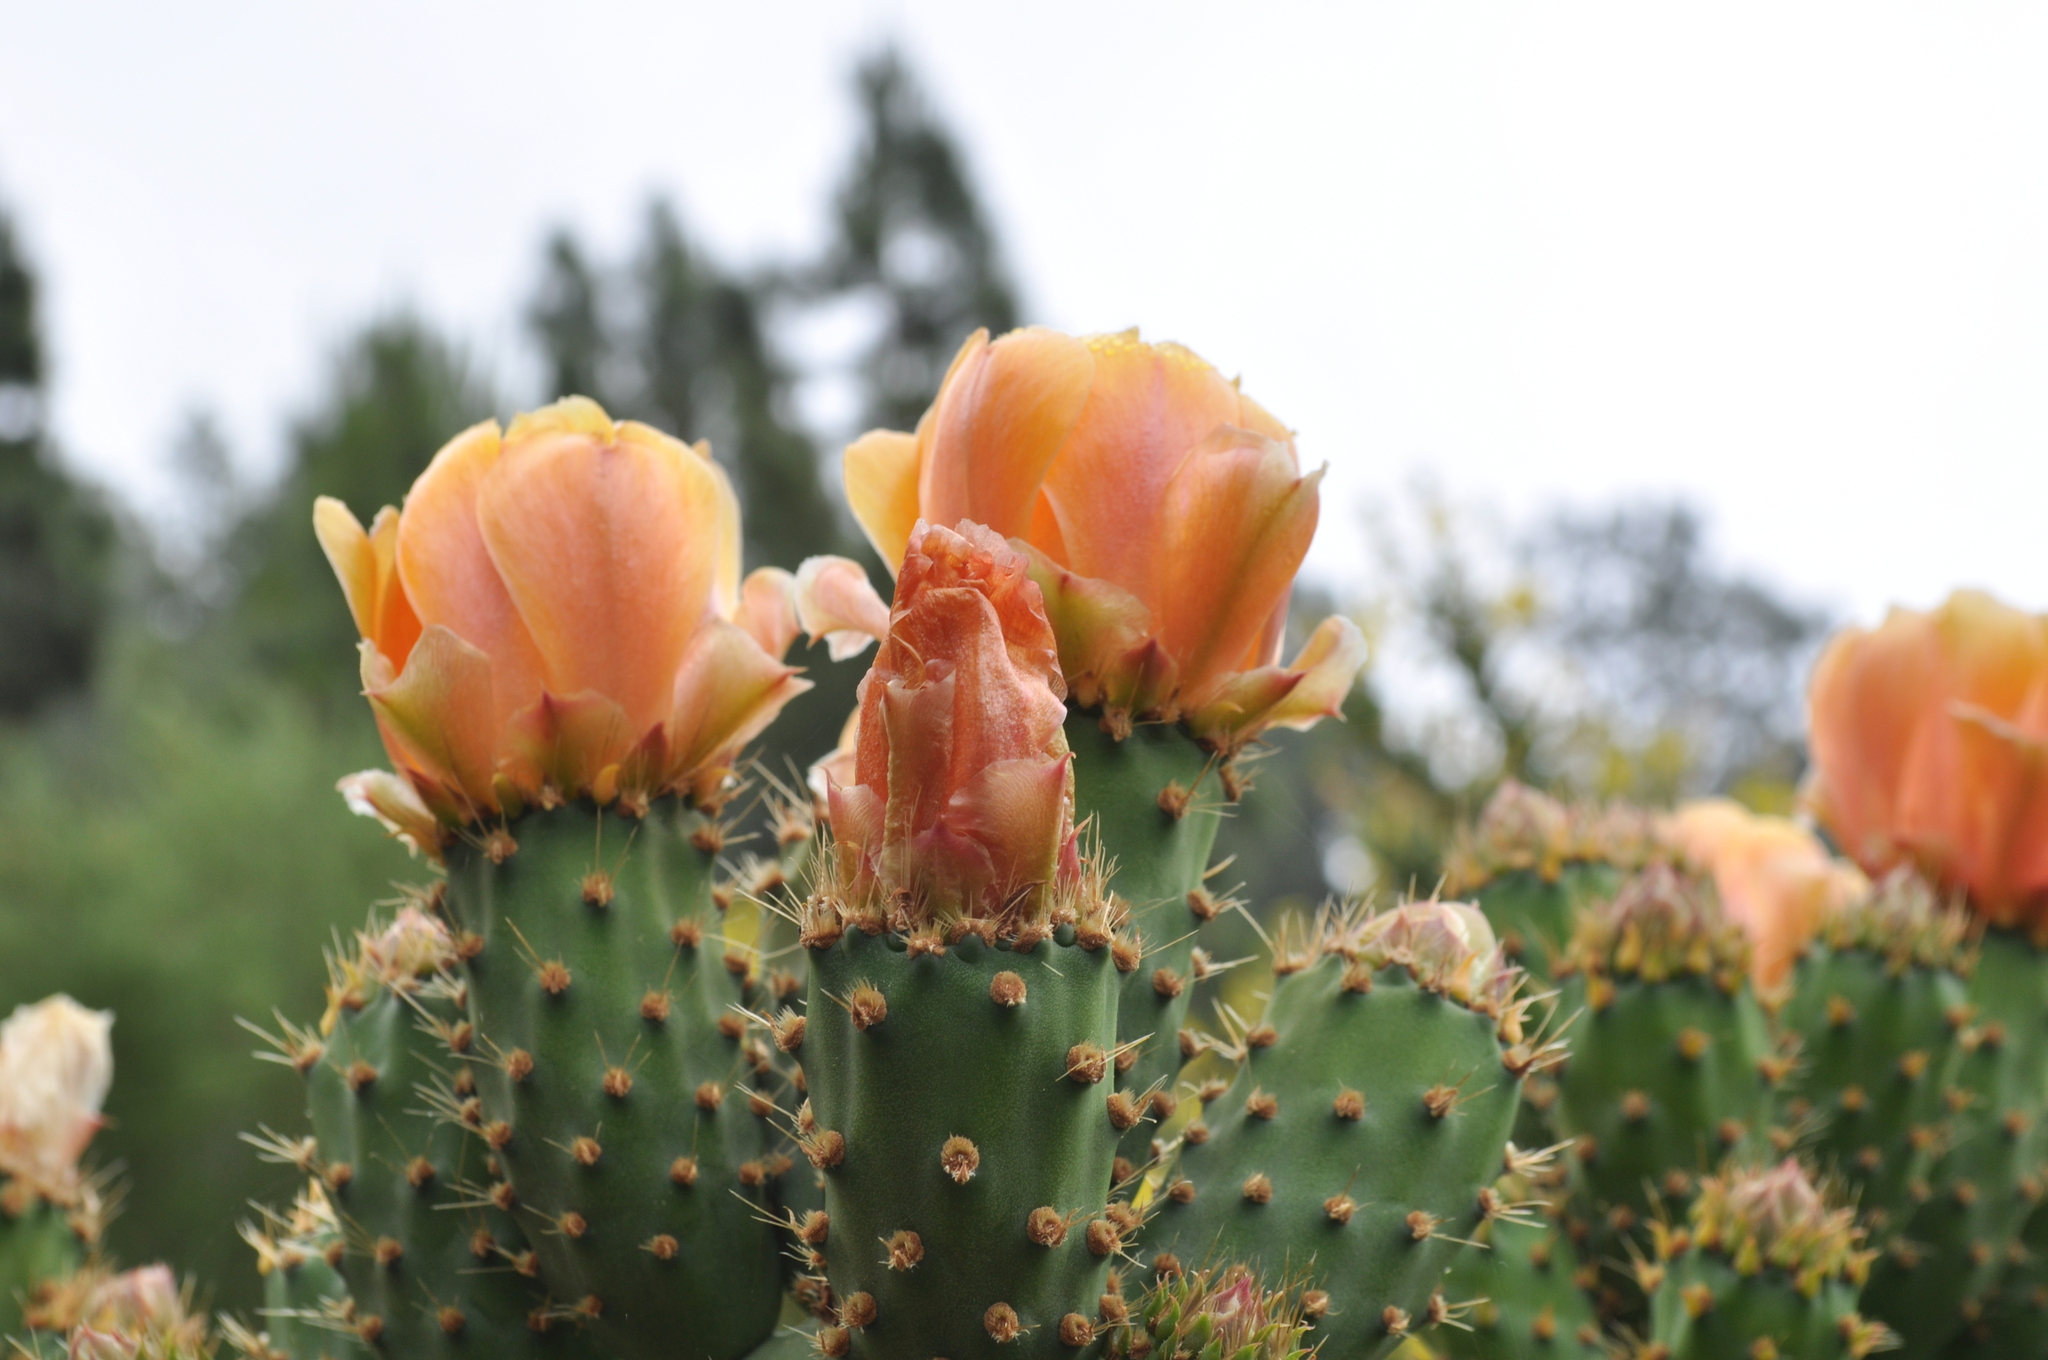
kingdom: Plantae
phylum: Tracheophyta
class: Magnoliopsida
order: Caryophyllales
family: Cactaceae
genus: Opuntia
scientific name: Opuntia ficus-indica
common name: Barbary fig
